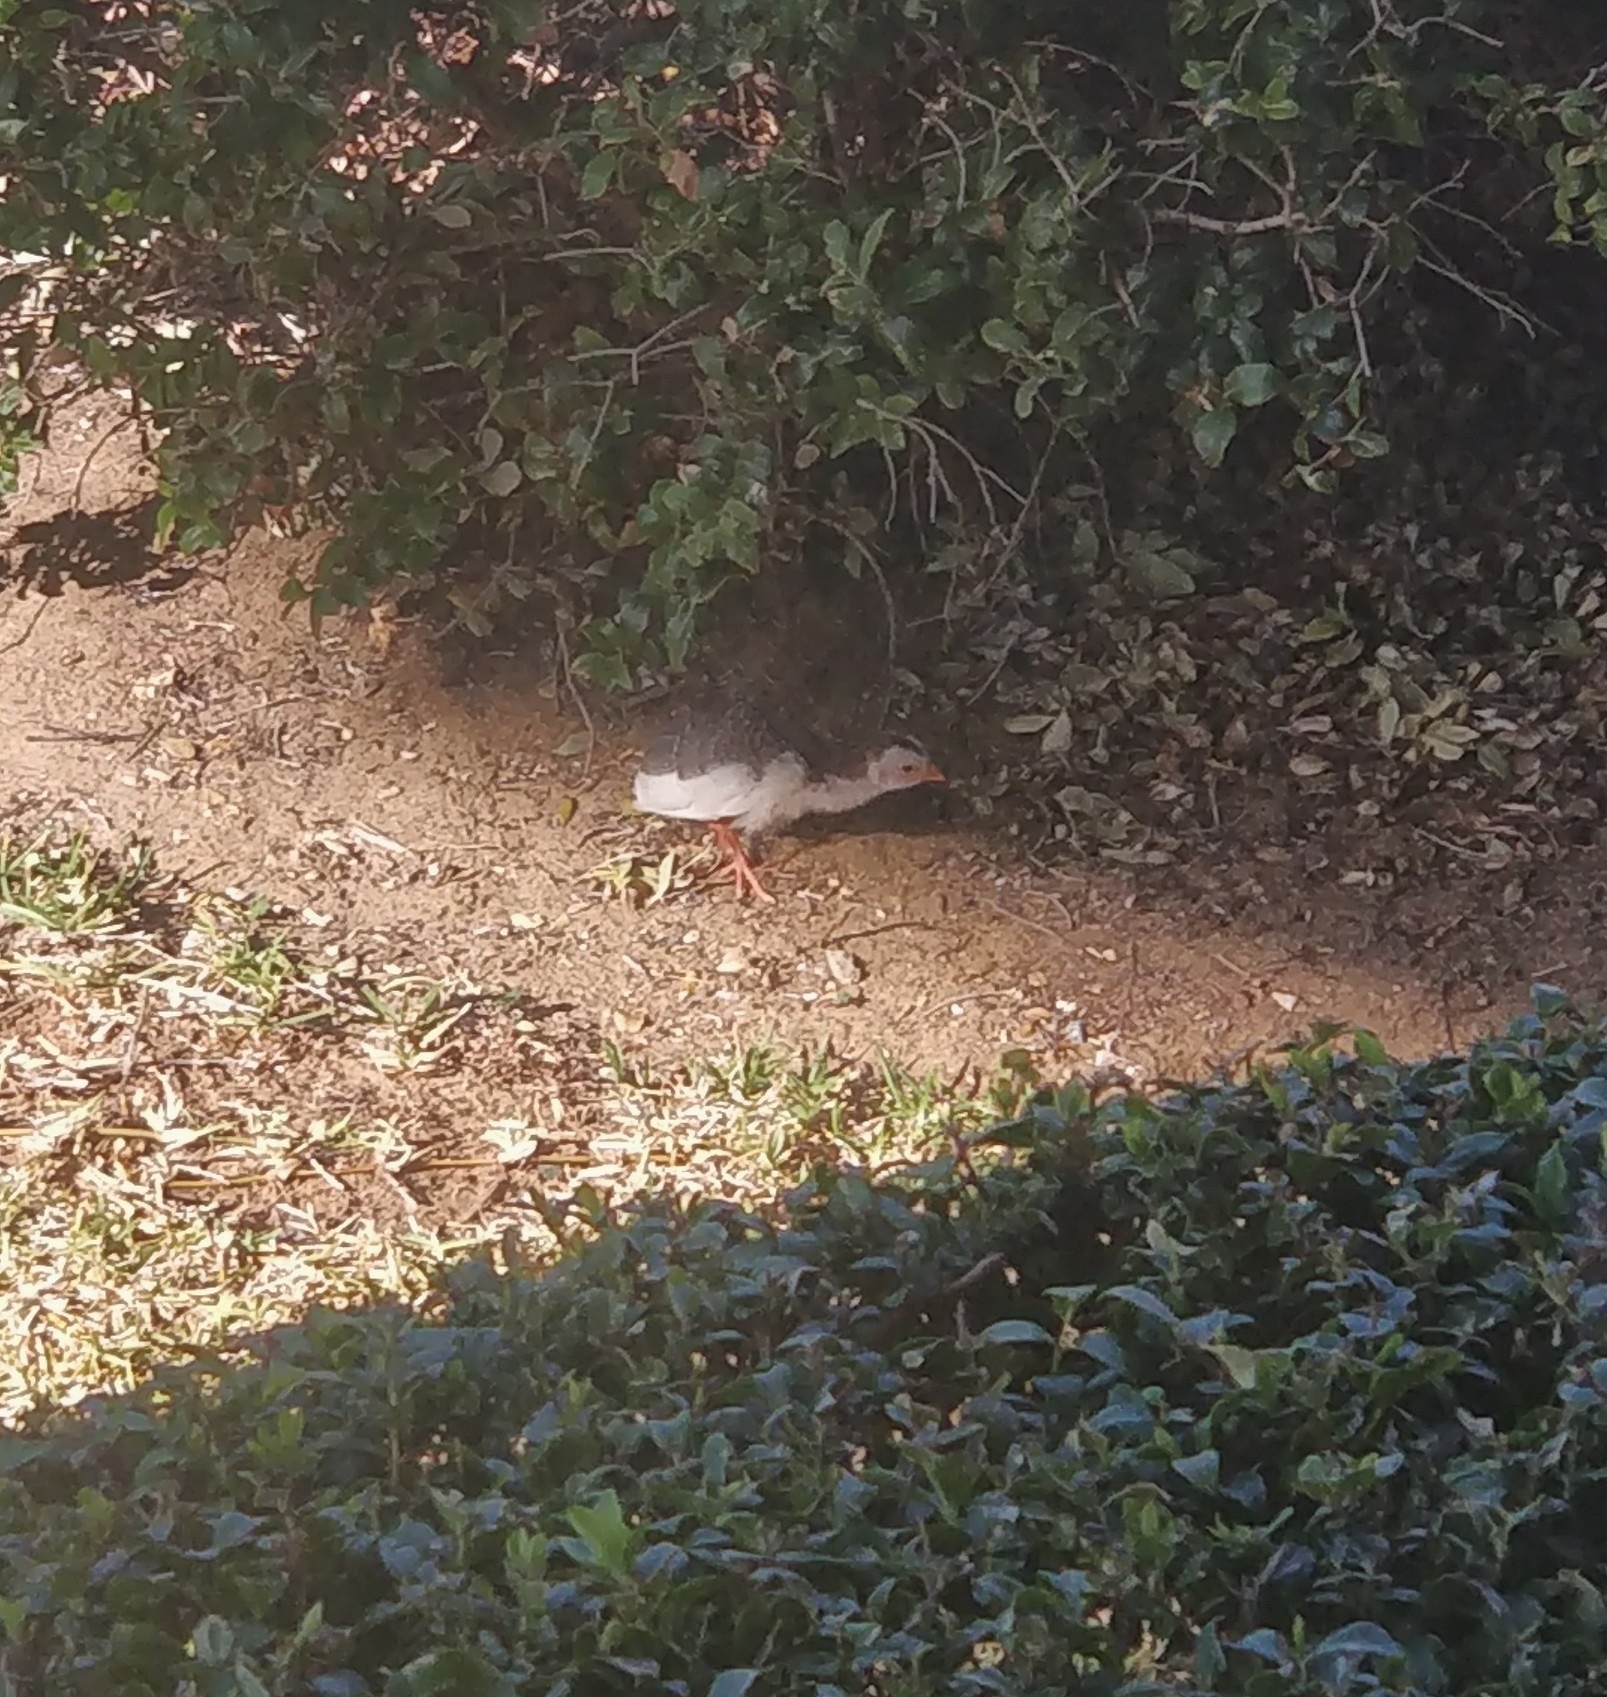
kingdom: Animalia
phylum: Chordata
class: Aves
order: Galliformes
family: Numididae
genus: Numida
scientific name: Numida meleagris
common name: Helmeted guineafowl
